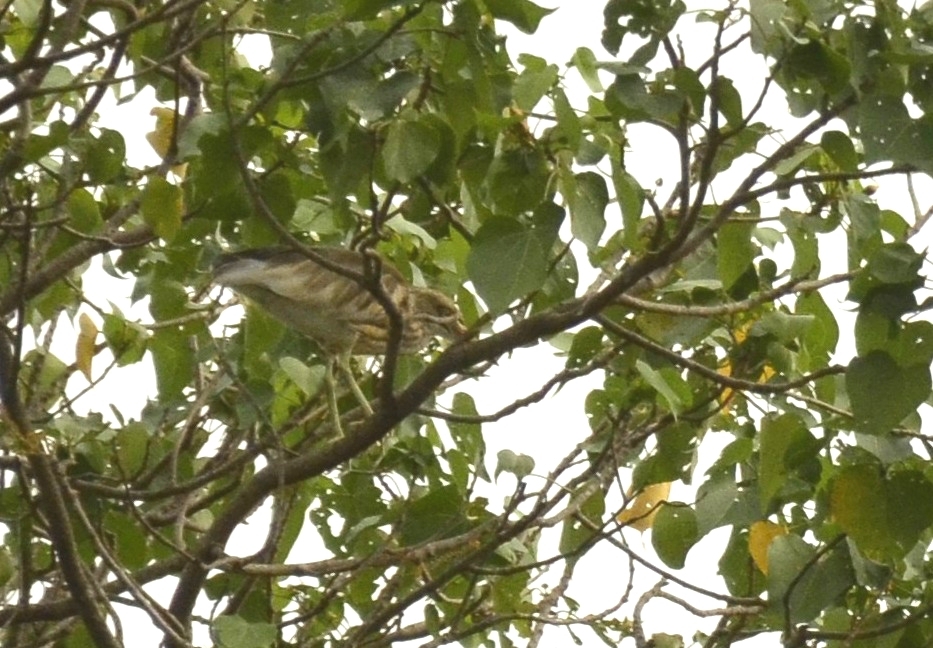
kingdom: Animalia
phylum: Chordata
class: Aves
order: Pelecaniformes
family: Ardeidae
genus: Ardeola
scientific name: Ardeola grayii
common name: Indian pond heron
